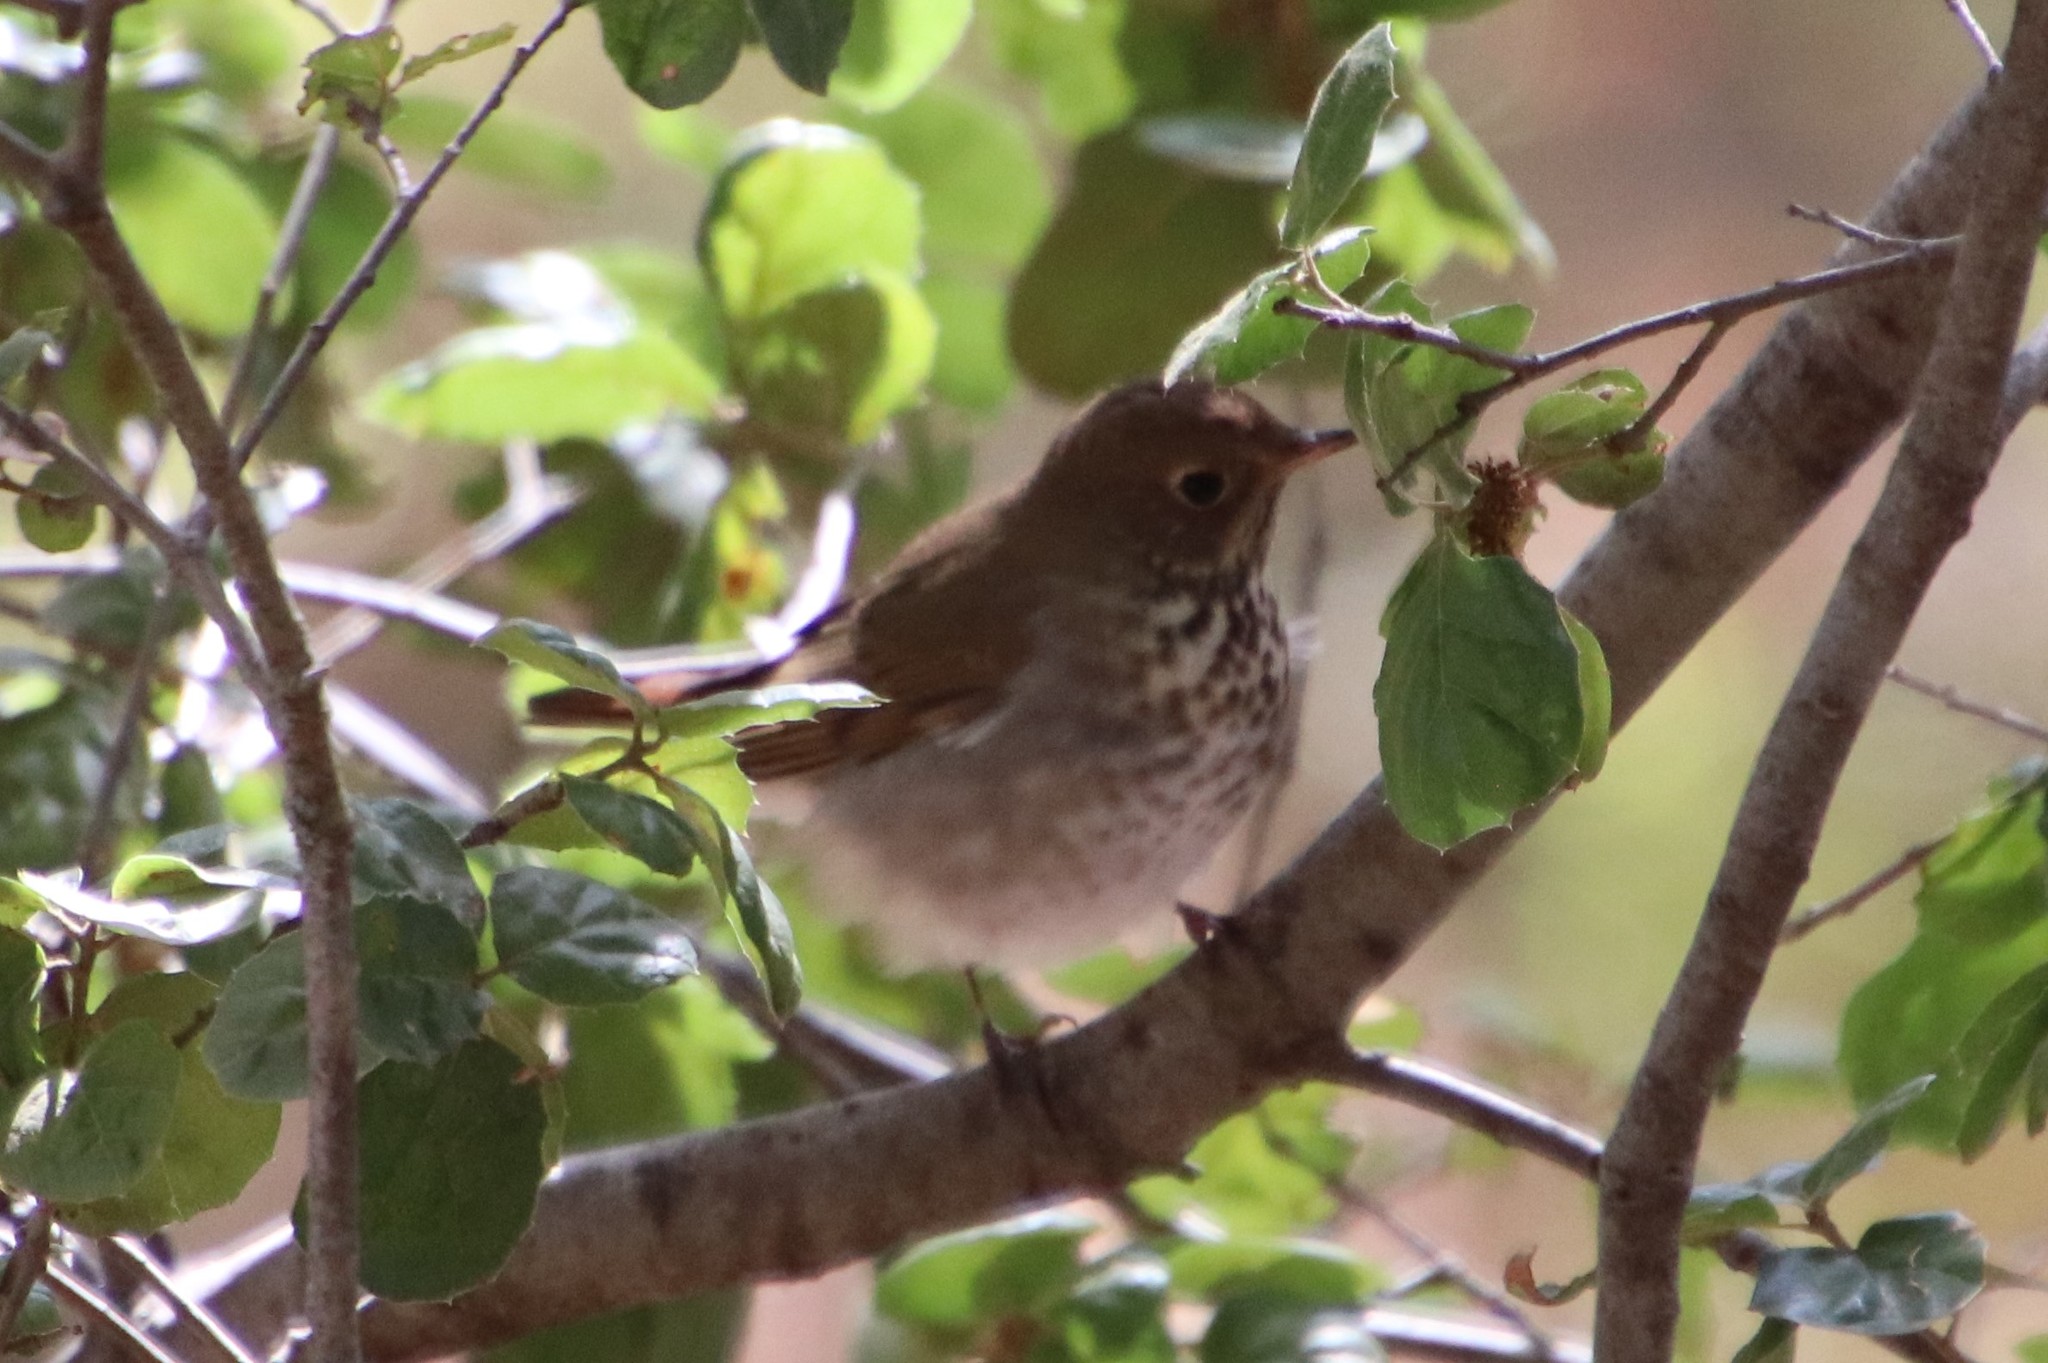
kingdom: Animalia
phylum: Chordata
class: Aves
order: Passeriformes
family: Turdidae
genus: Catharus
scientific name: Catharus guttatus
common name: Hermit thrush
